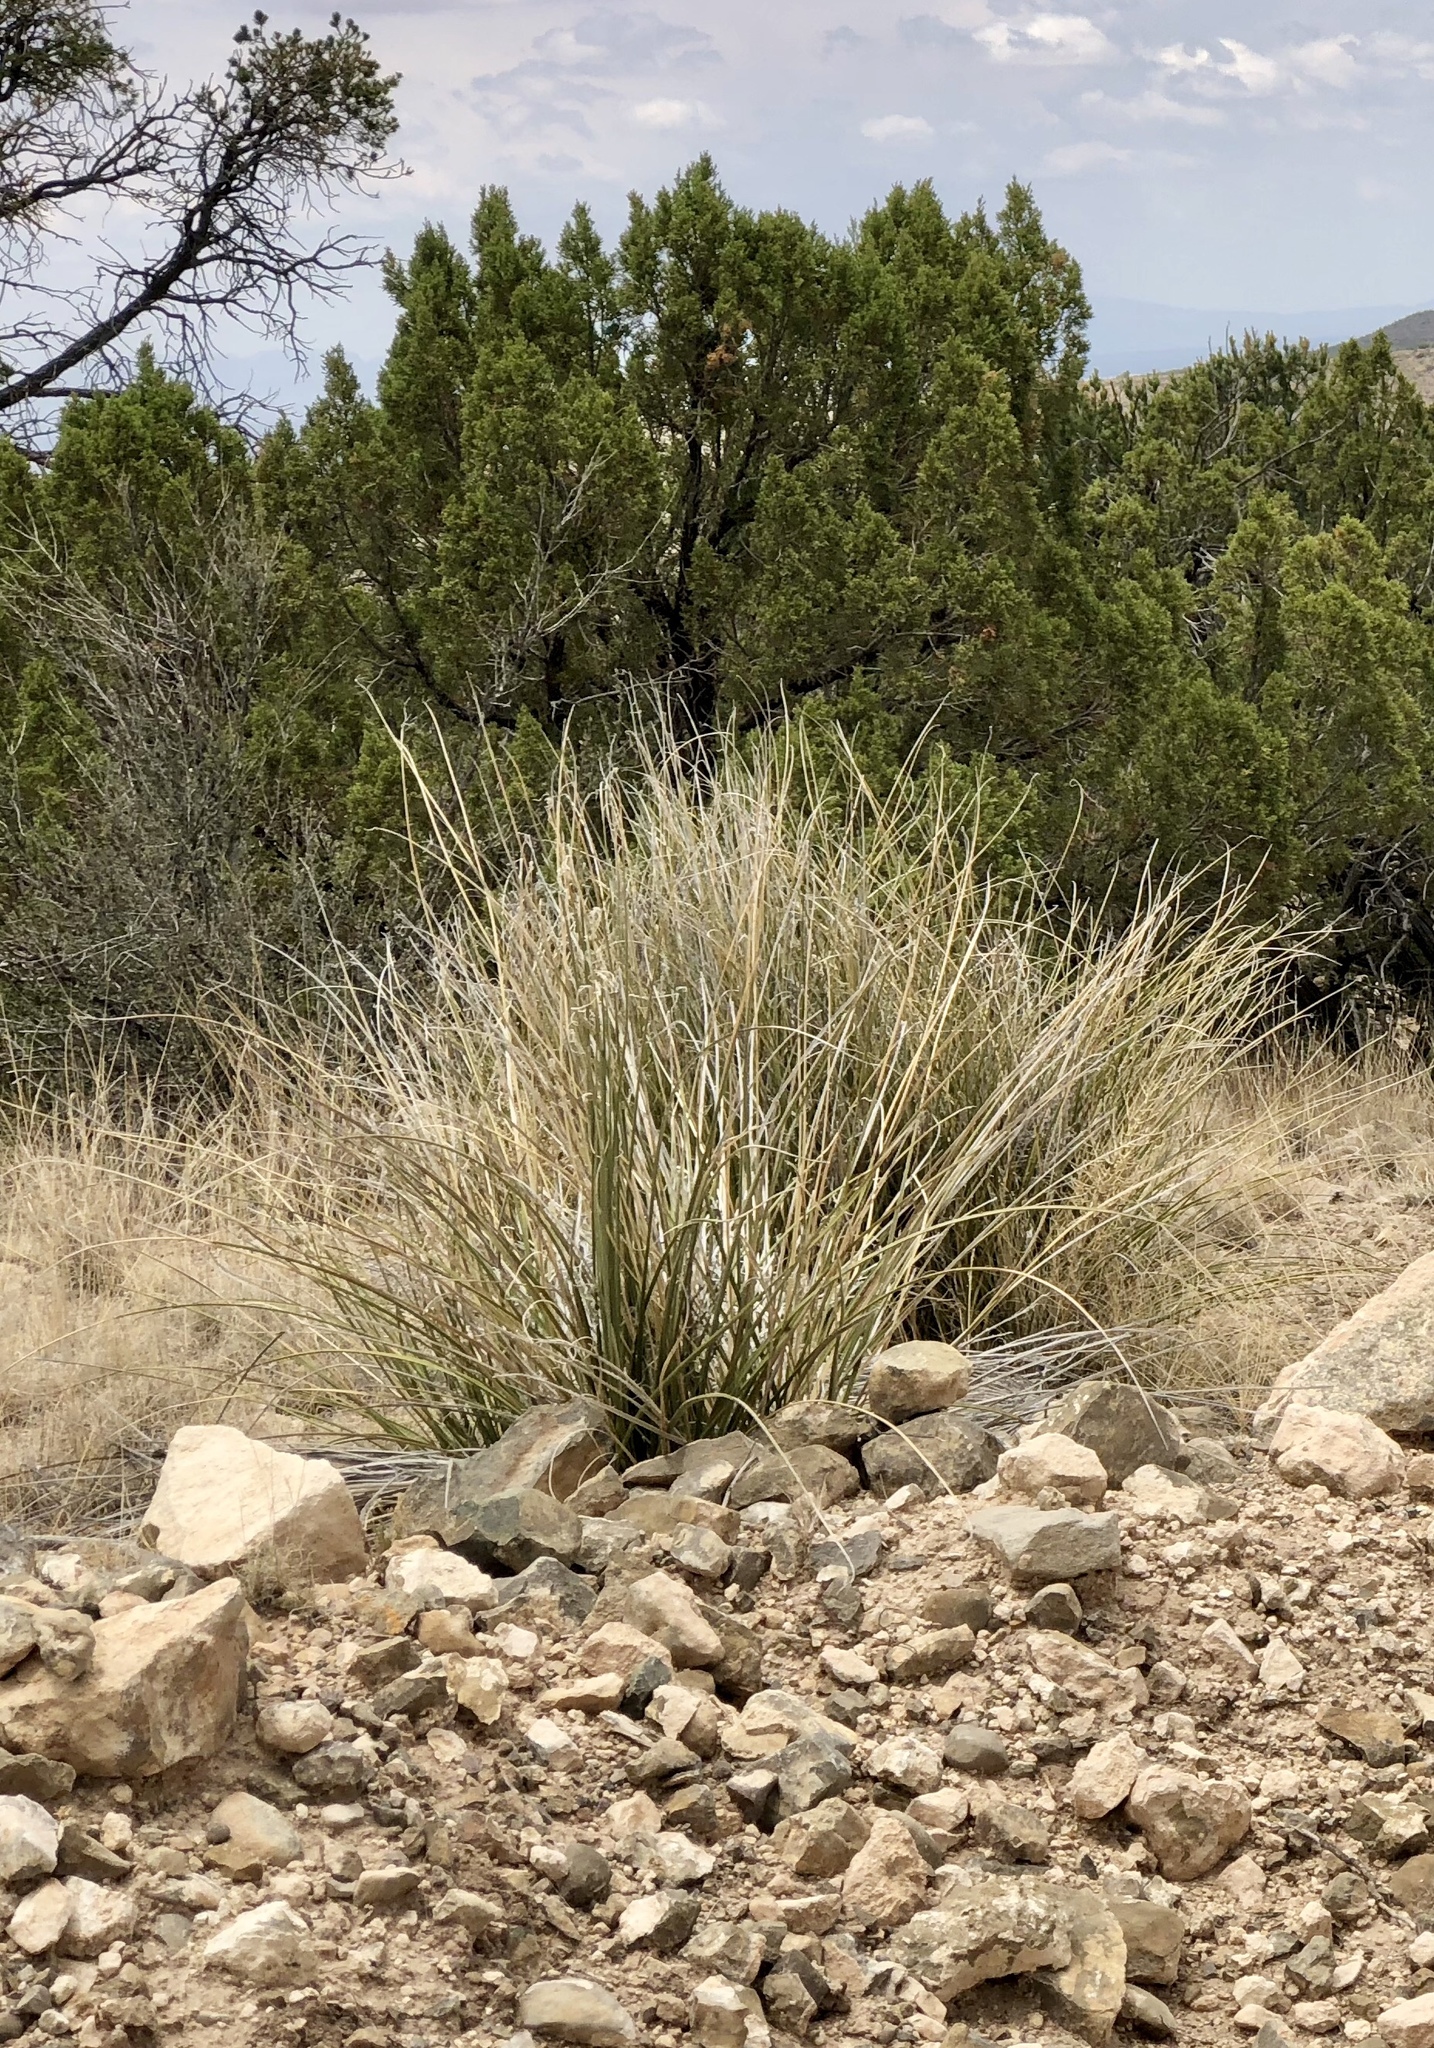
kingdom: Plantae
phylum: Tracheophyta
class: Liliopsida
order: Asparagales
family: Asparagaceae
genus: Nolina
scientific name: Nolina microcarpa
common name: Bear-grass
